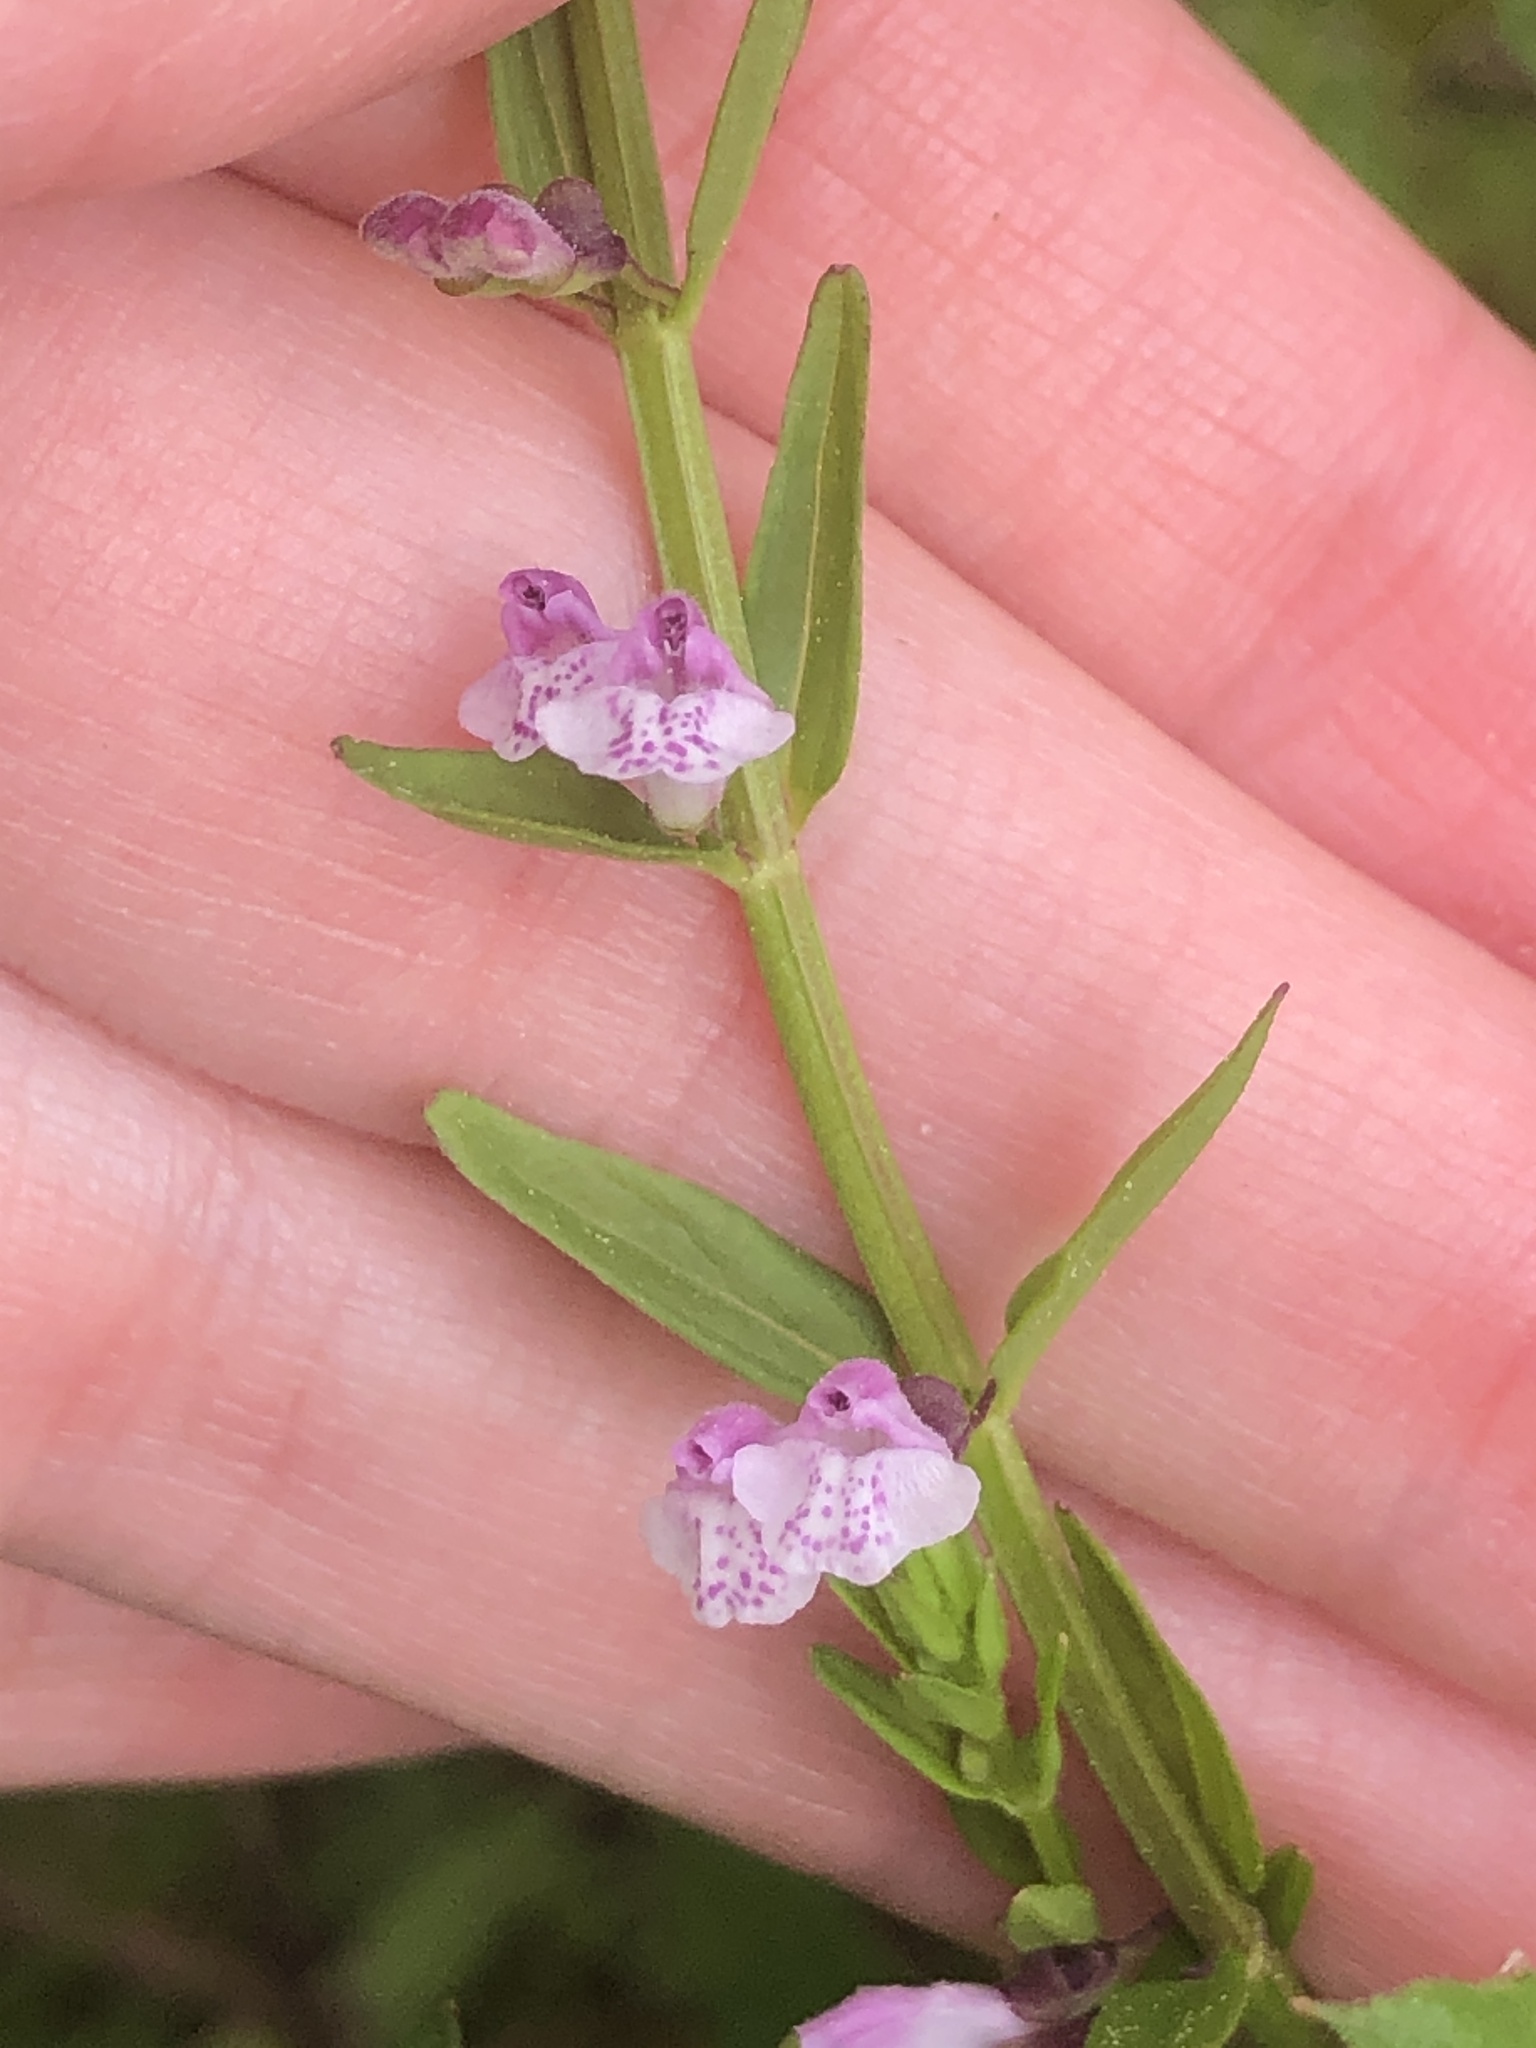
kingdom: Plantae
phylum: Tracheophyta
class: Magnoliopsida
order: Lamiales
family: Lamiaceae
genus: Scutellaria
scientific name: Scutellaria racemosa
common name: South american skullcap
